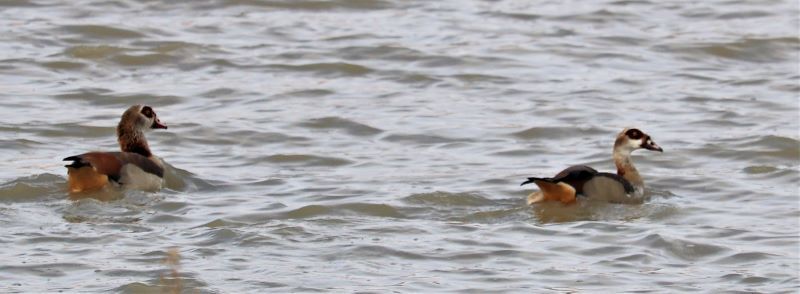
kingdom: Animalia
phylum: Chordata
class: Aves
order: Anseriformes
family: Anatidae
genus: Alopochen
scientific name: Alopochen aegyptiaca
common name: Egyptian goose
